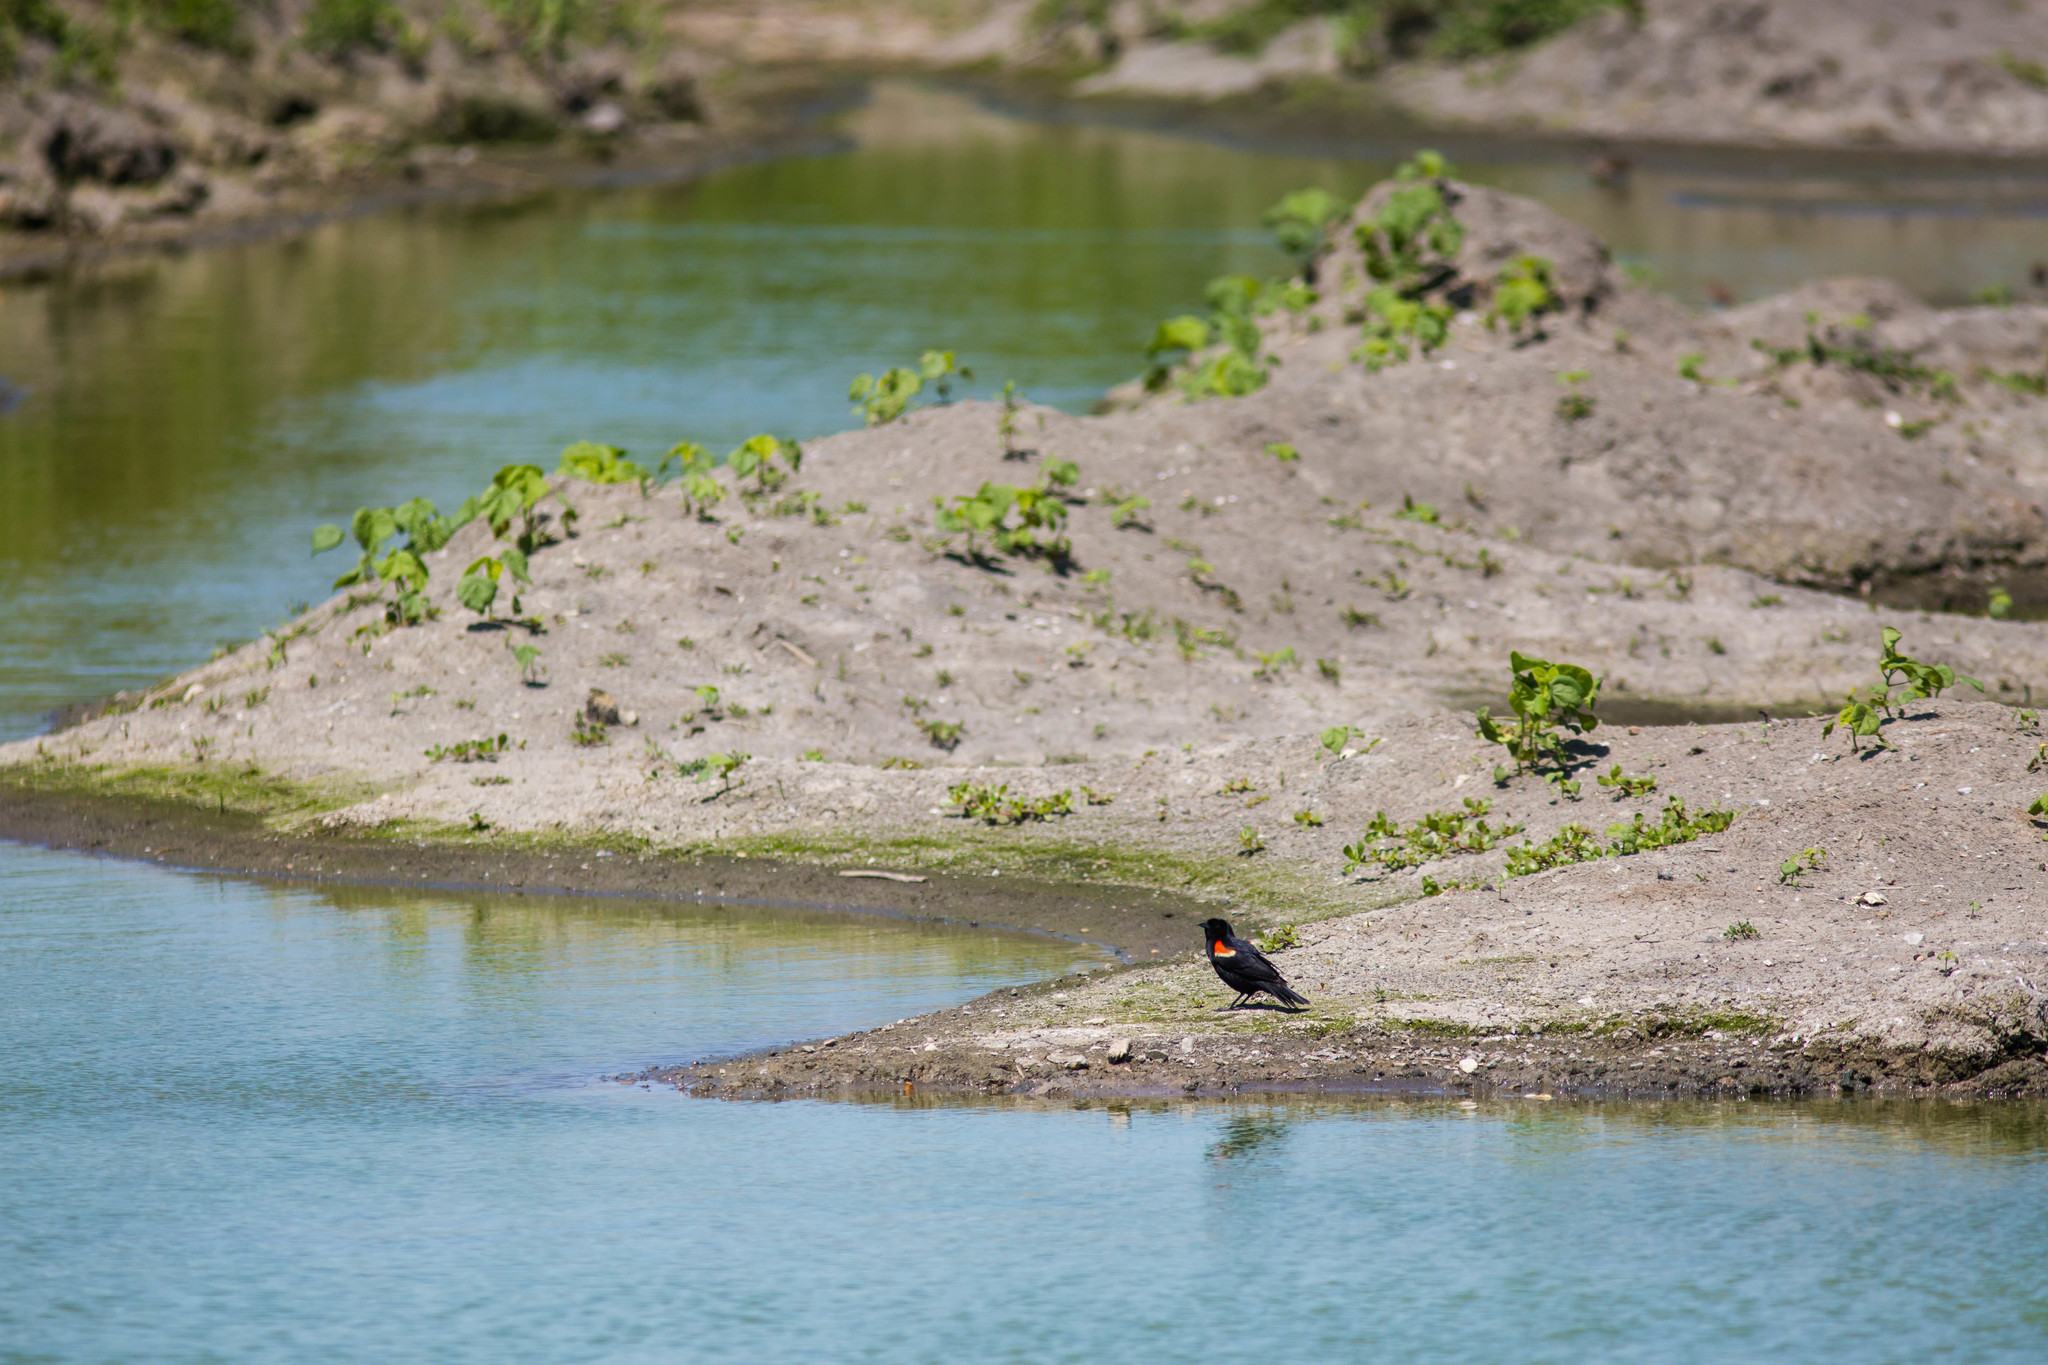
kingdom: Animalia
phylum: Chordata
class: Aves
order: Passeriformes
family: Icteridae
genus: Agelaius
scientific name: Agelaius phoeniceus
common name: Red-winged blackbird
